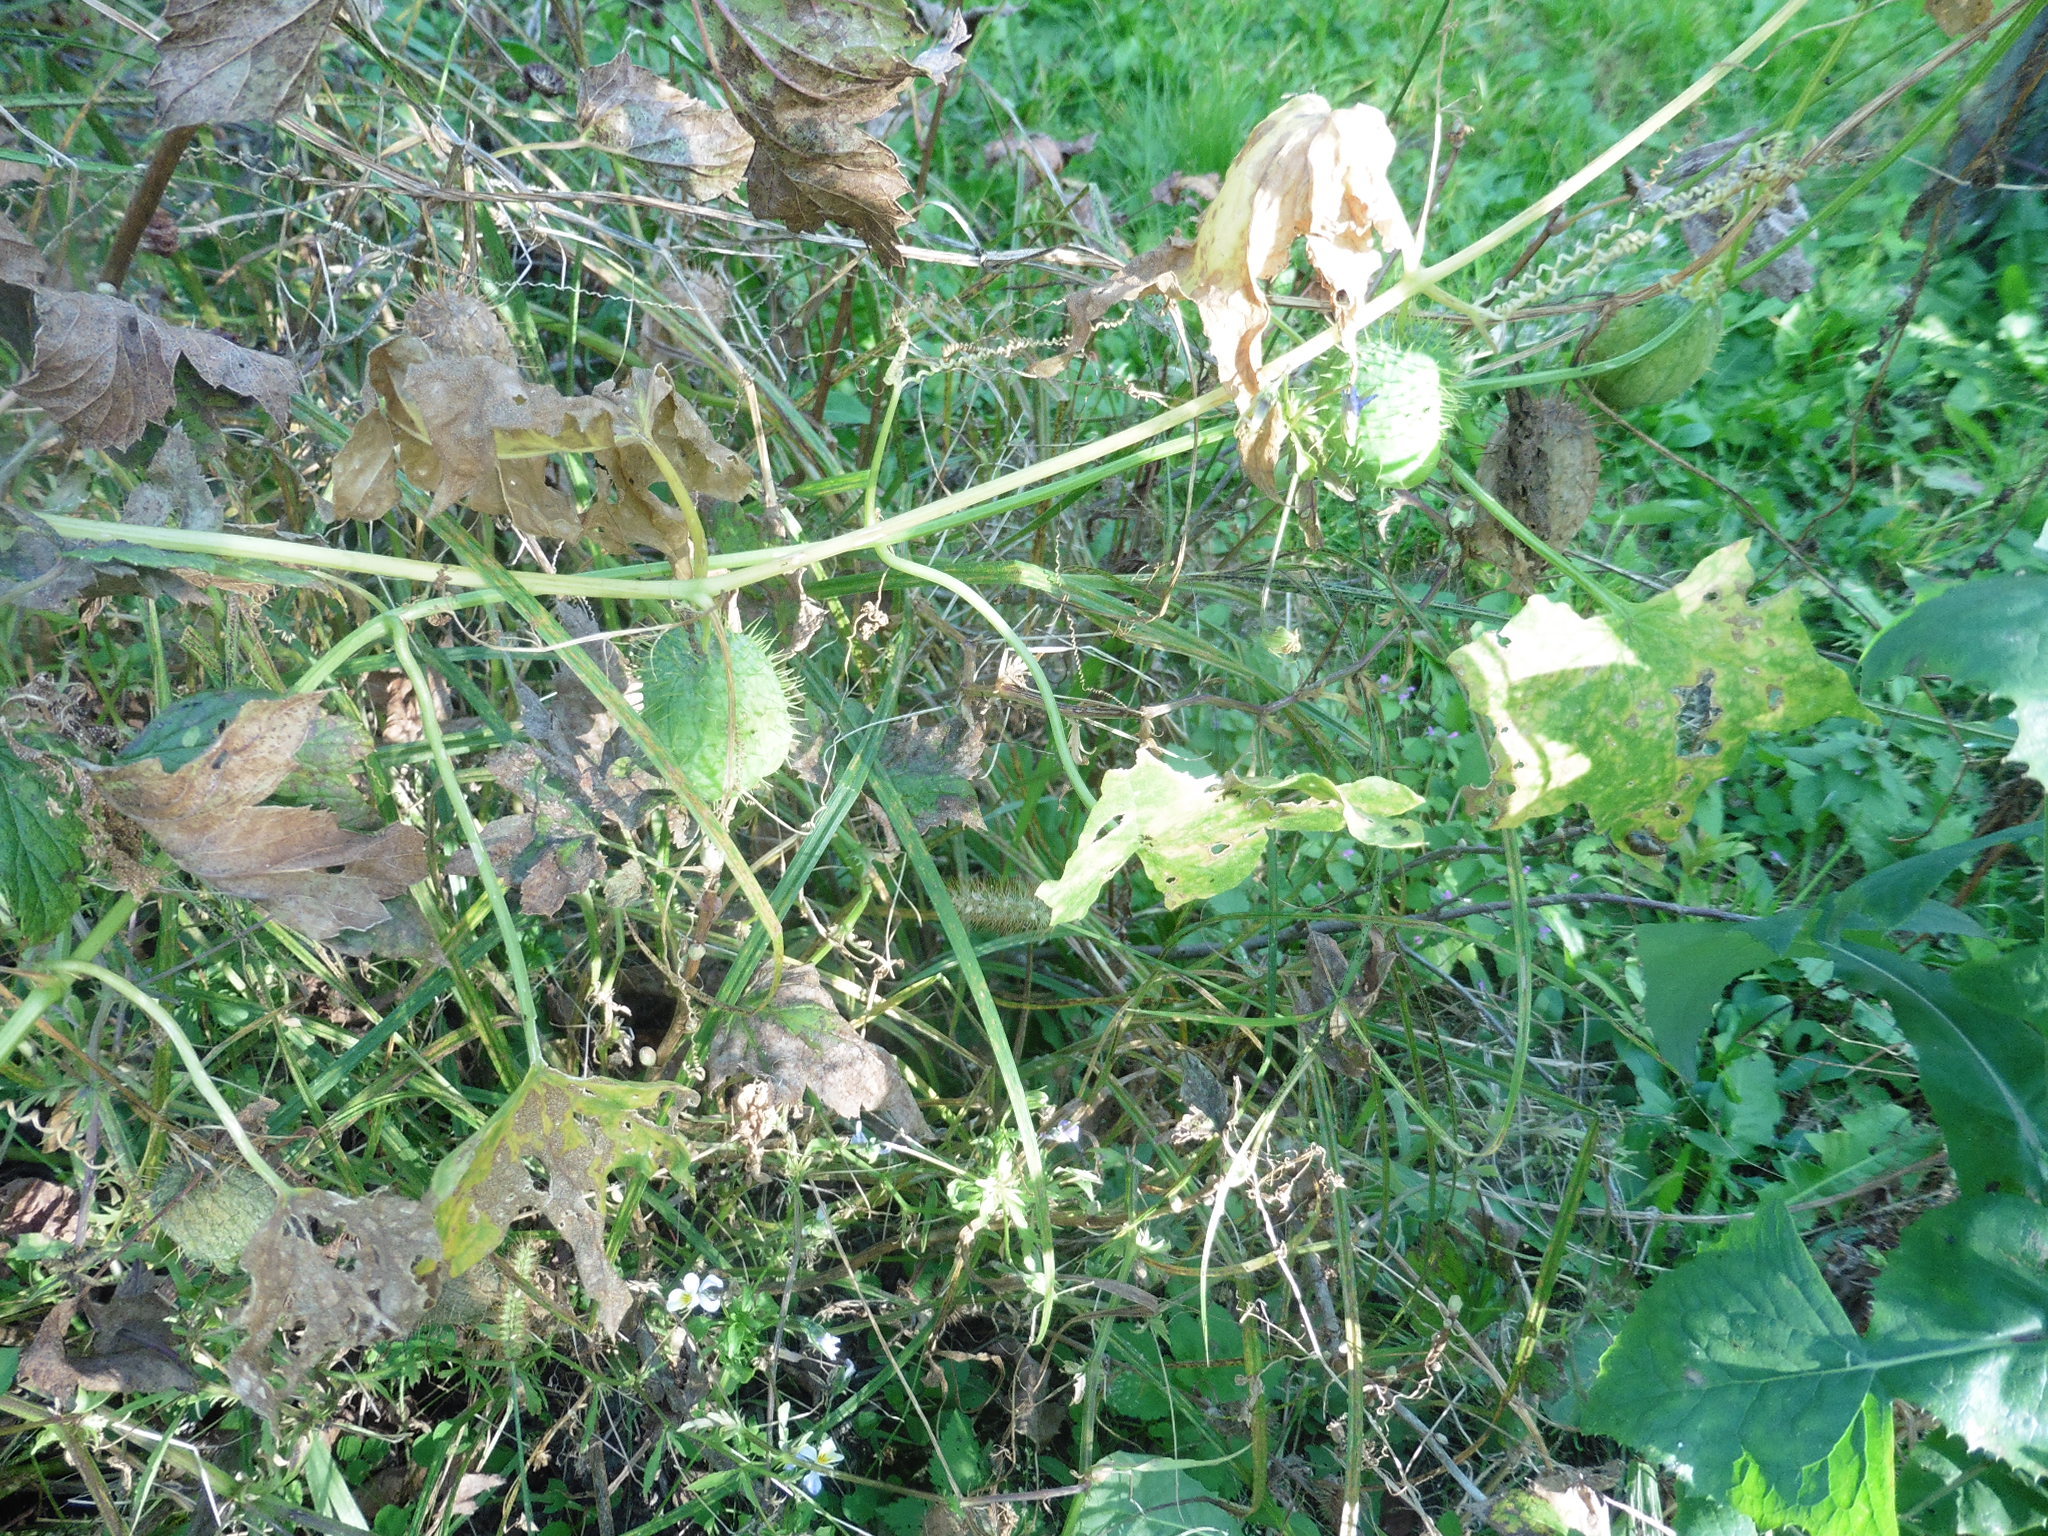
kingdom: Plantae
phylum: Tracheophyta
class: Magnoliopsida
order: Cucurbitales
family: Cucurbitaceae
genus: Echinocystis
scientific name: Echinocystis lobata
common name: Wild cucumber
